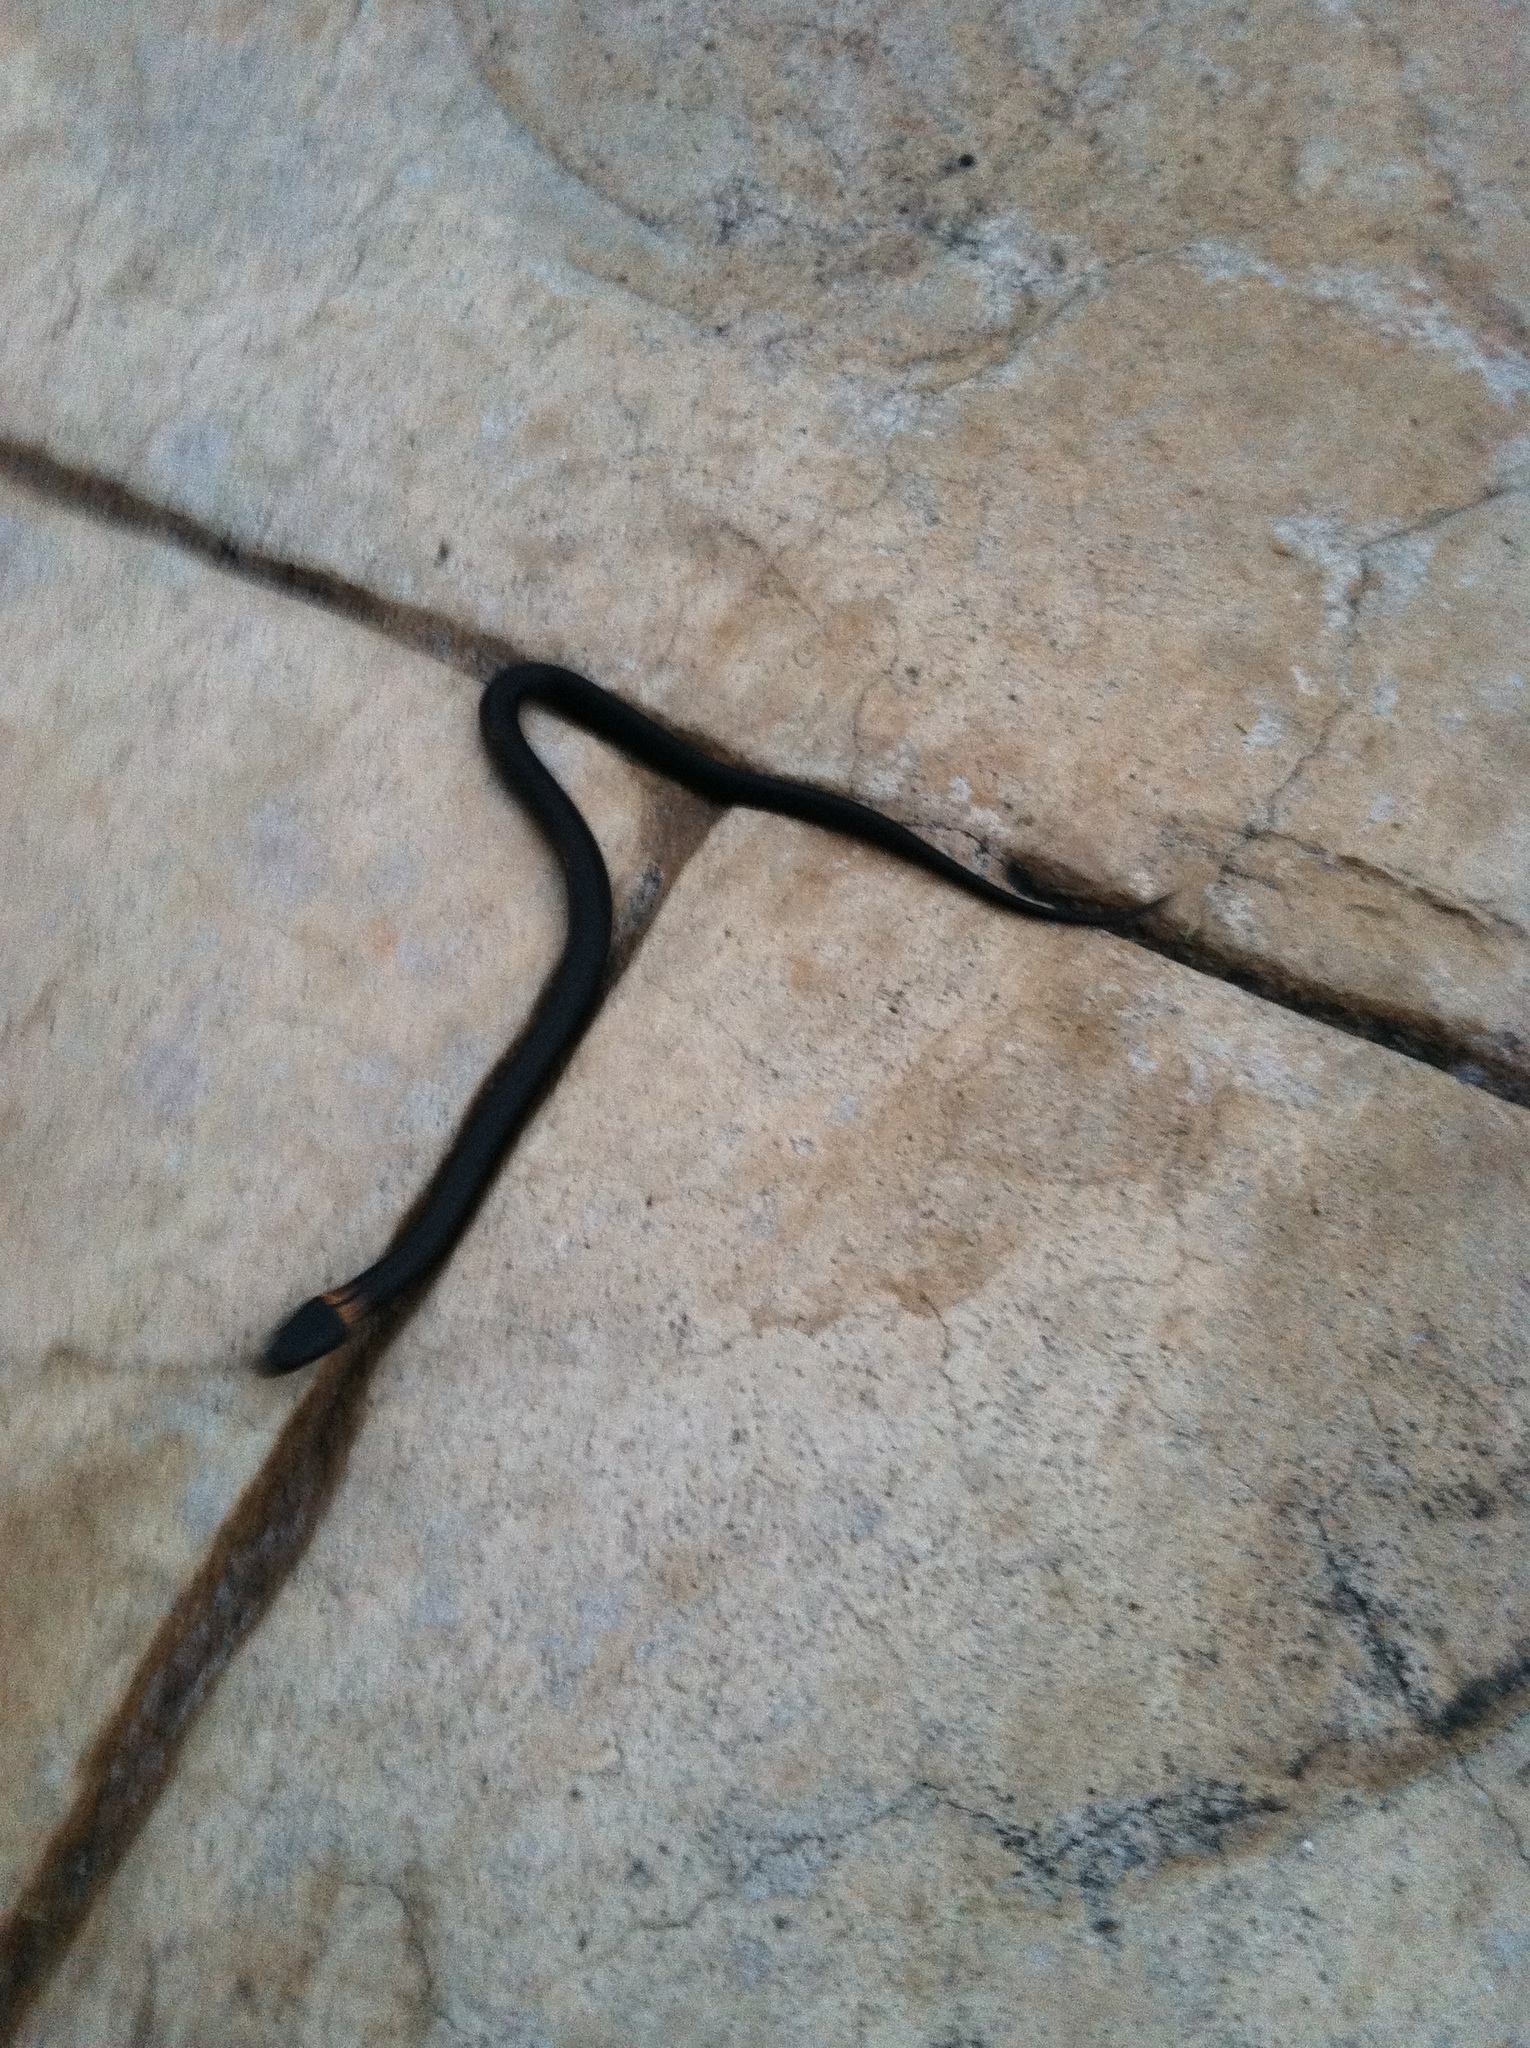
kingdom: Animalia
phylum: Chordata
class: Squamata
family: Colubridae
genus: Diadophis
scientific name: Diadophis punctatus
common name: Ringneck snake
